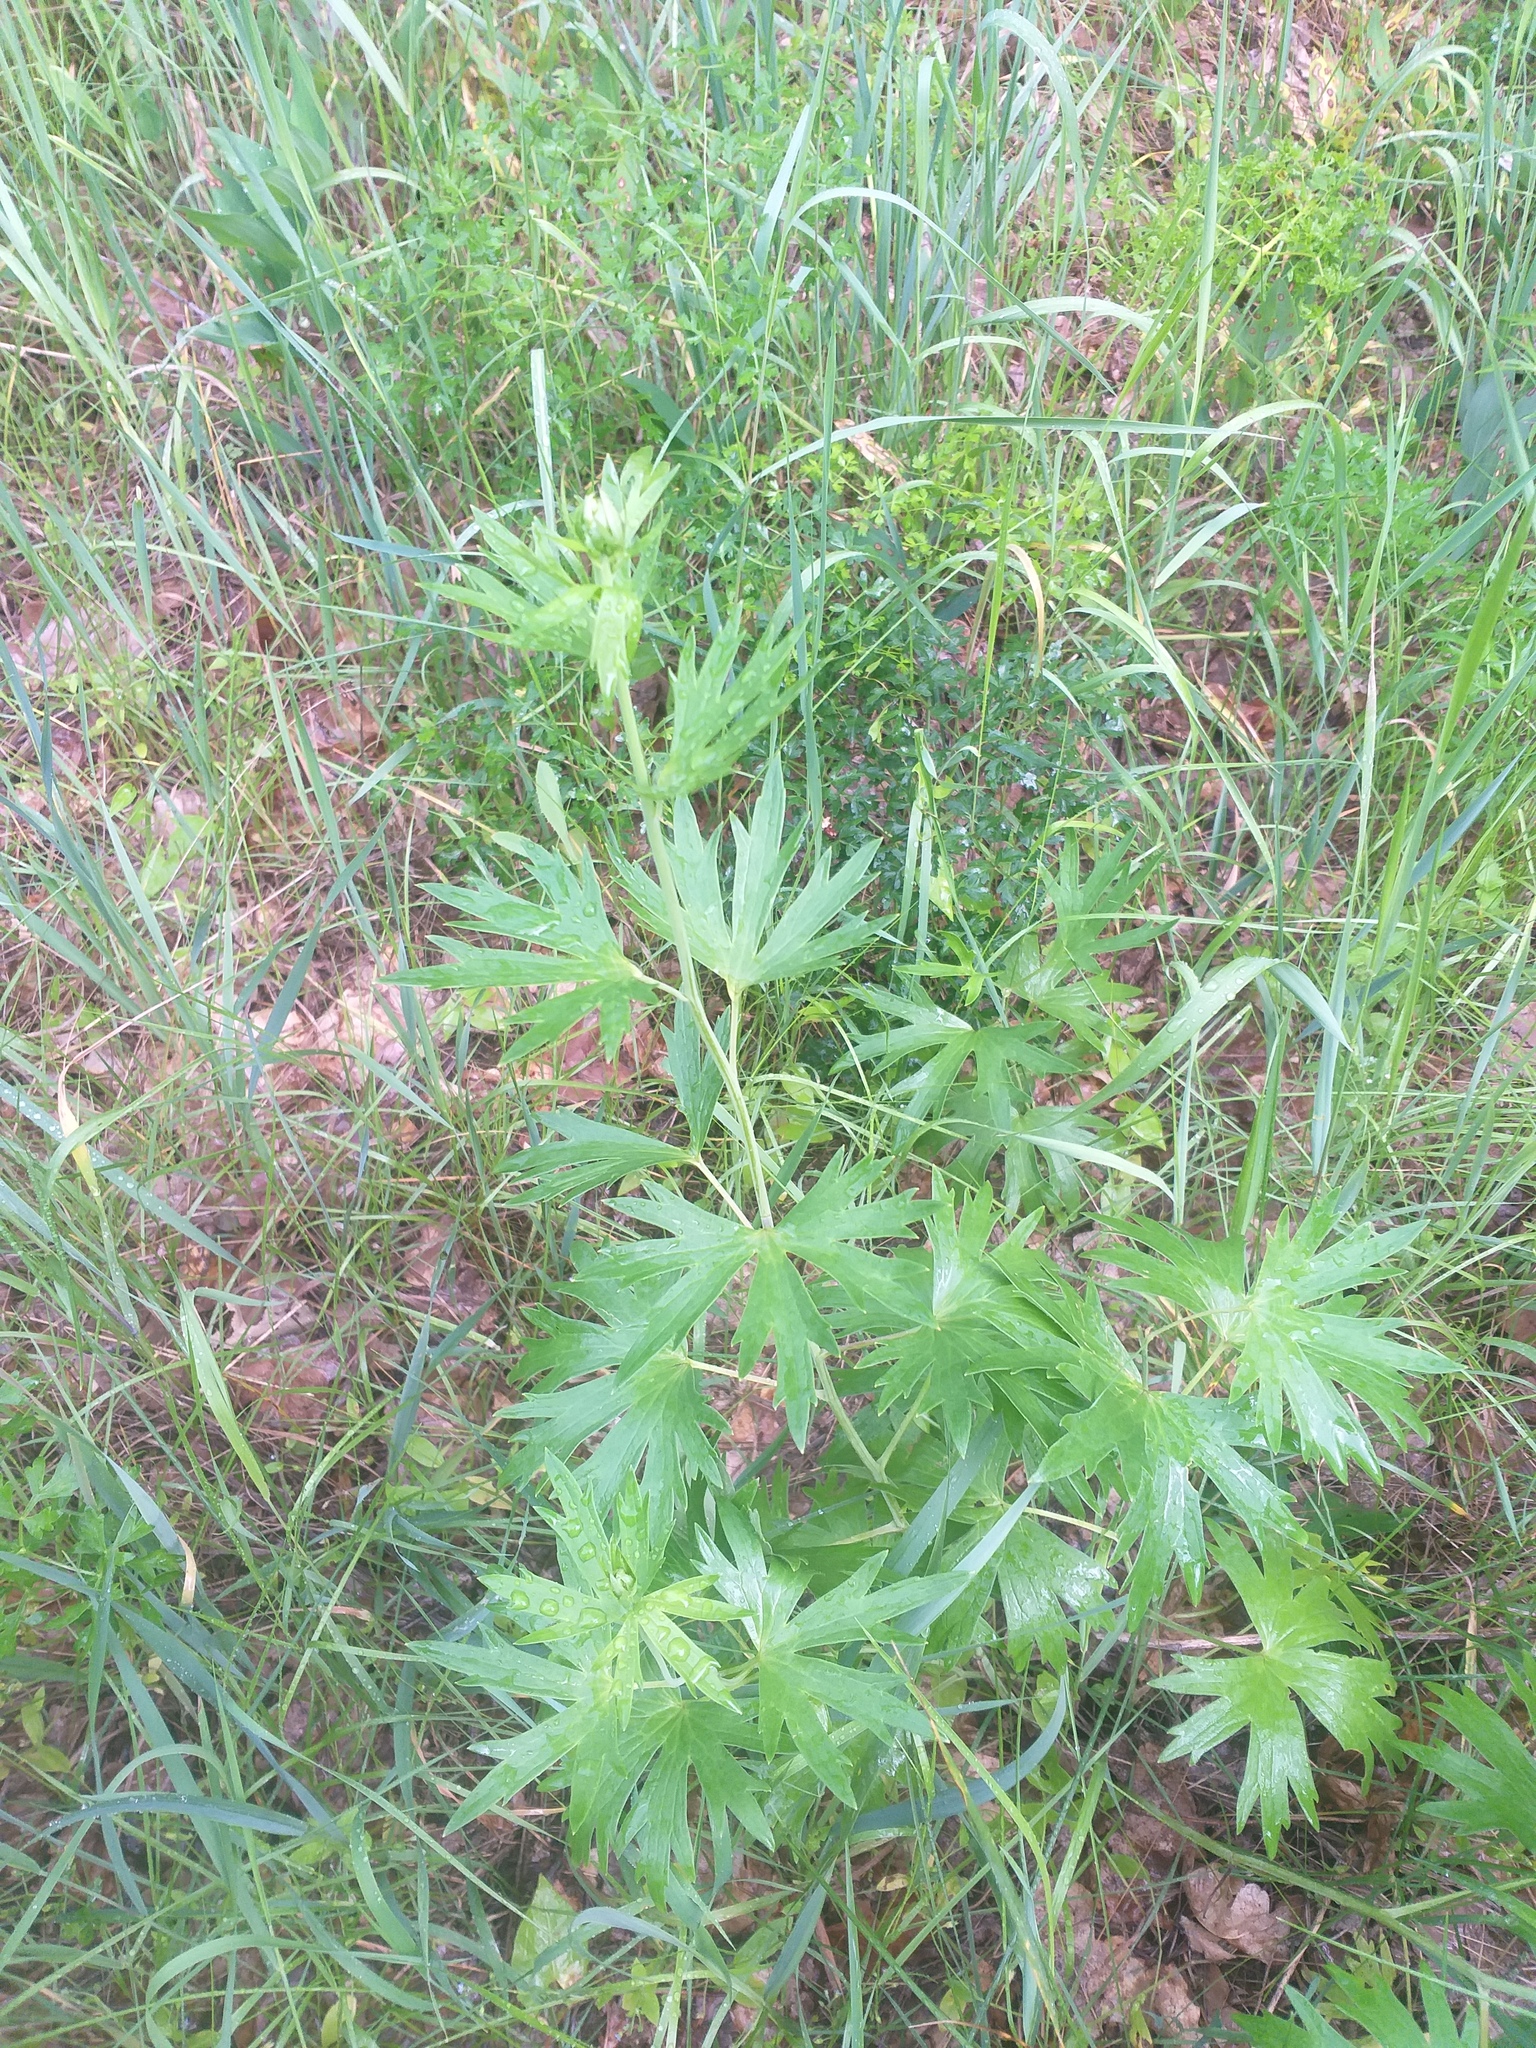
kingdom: Plantae
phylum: Tracheophyta
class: Magnoliopsida
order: Ranunculales
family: Ranunculaceae
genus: Delphinium
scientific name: Delphinium cuneatum
